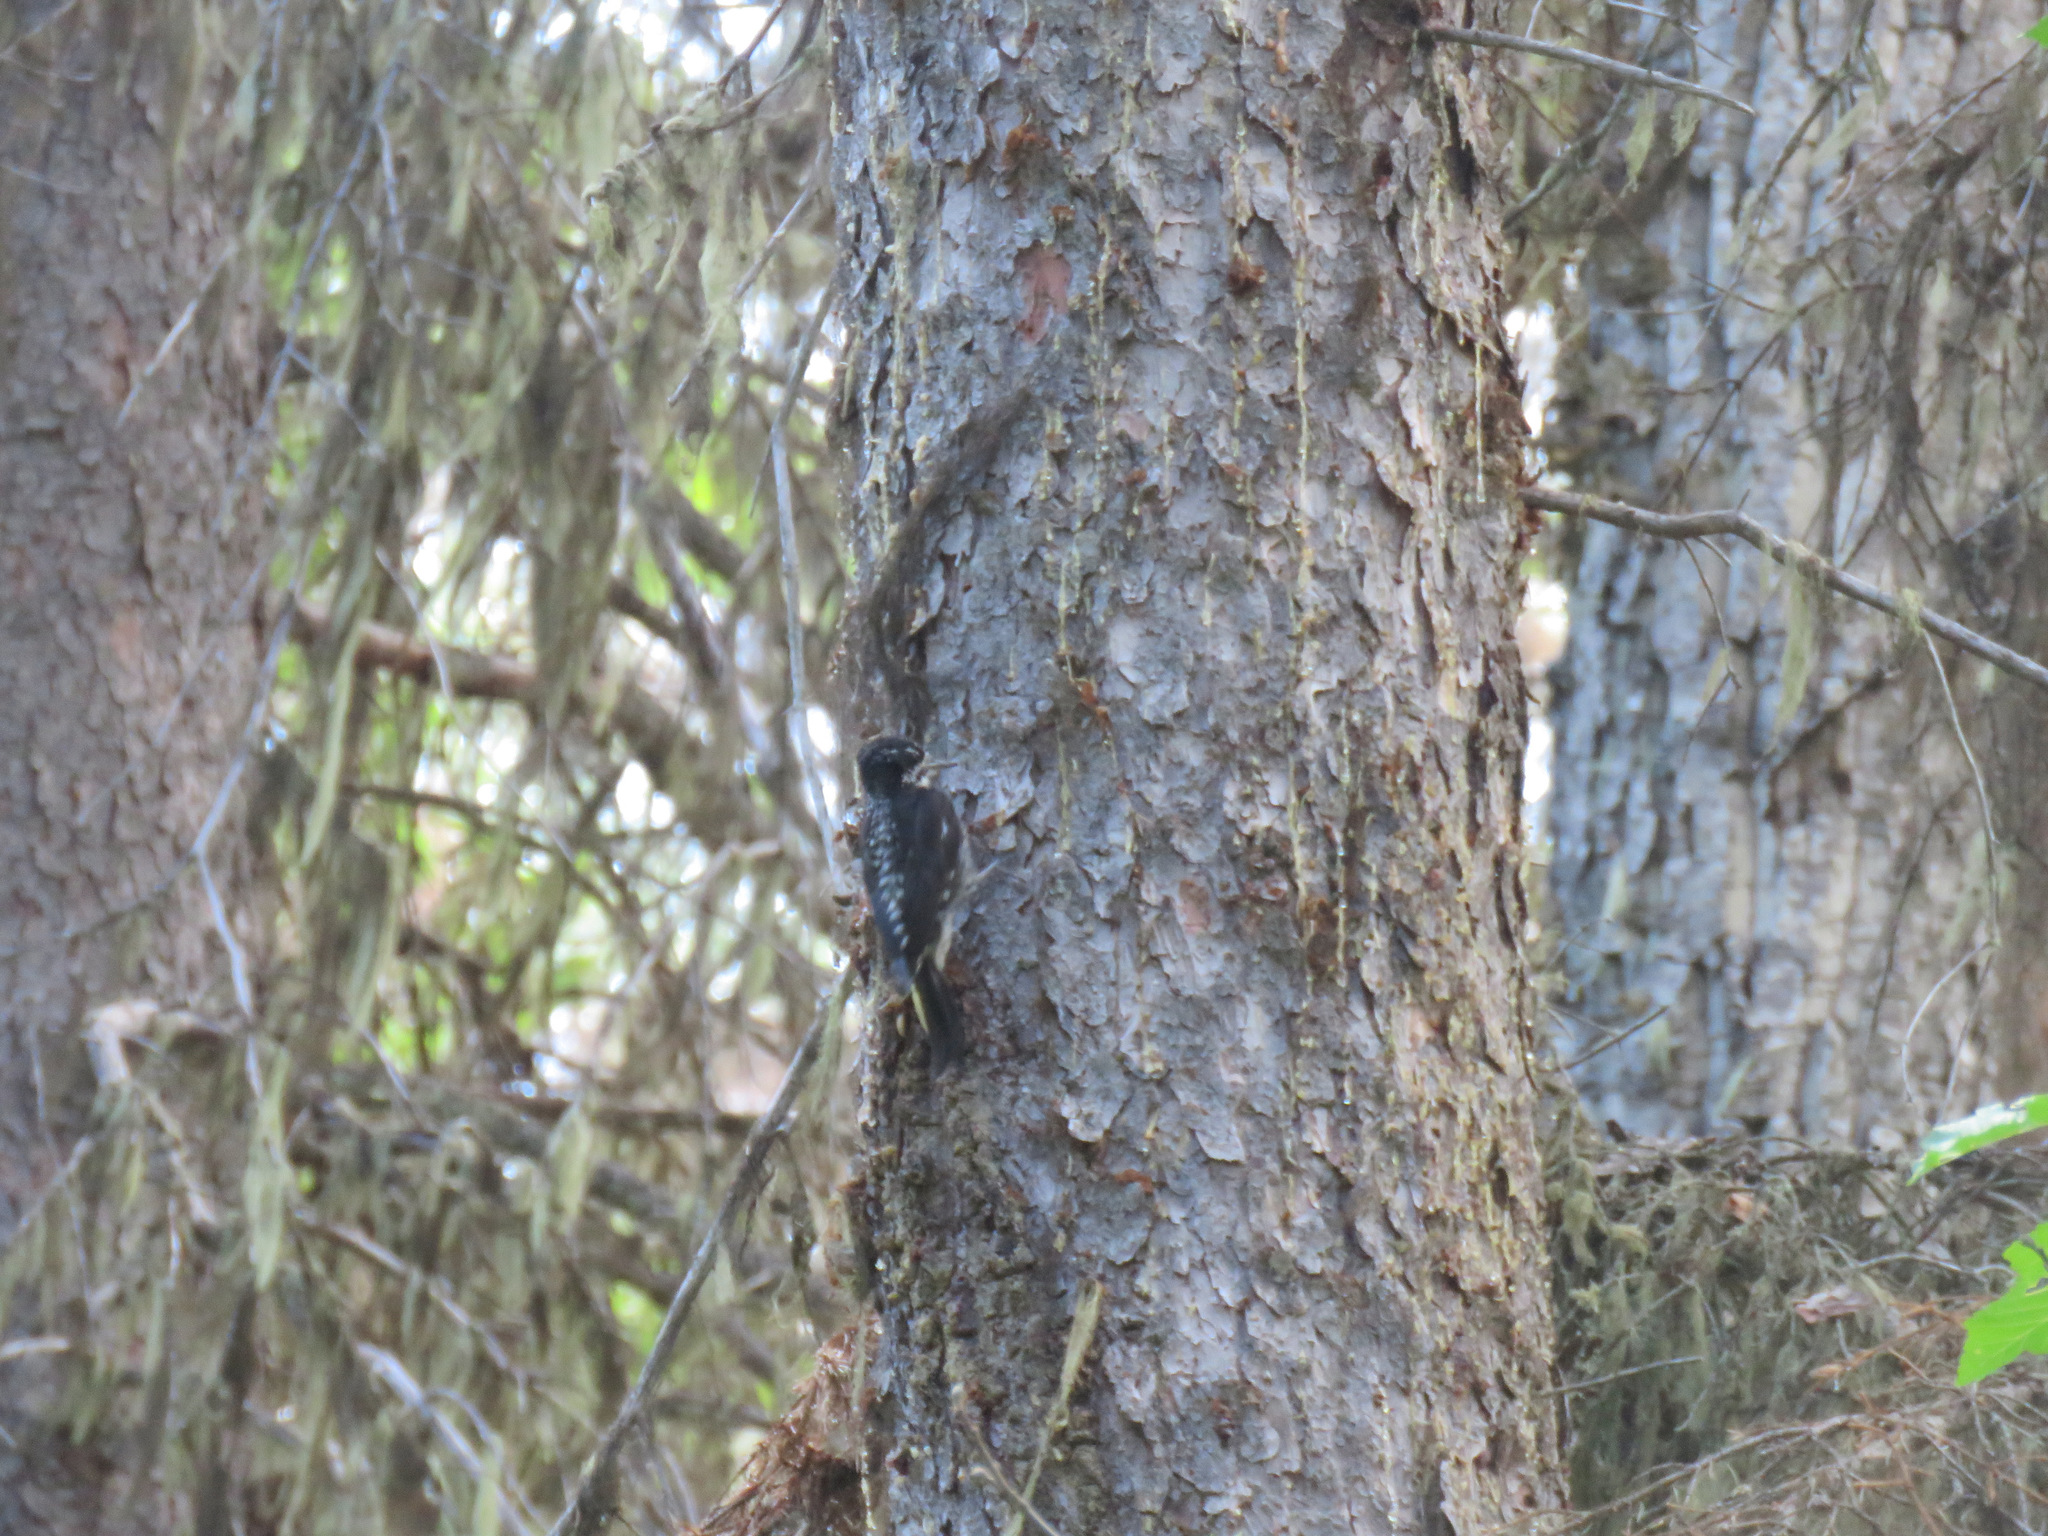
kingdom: Animalia
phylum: Chordata
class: Aves
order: Piciformes
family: Picidae
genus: Picoides
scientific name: Picoides dorsalis
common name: American three-toed woodpecker
